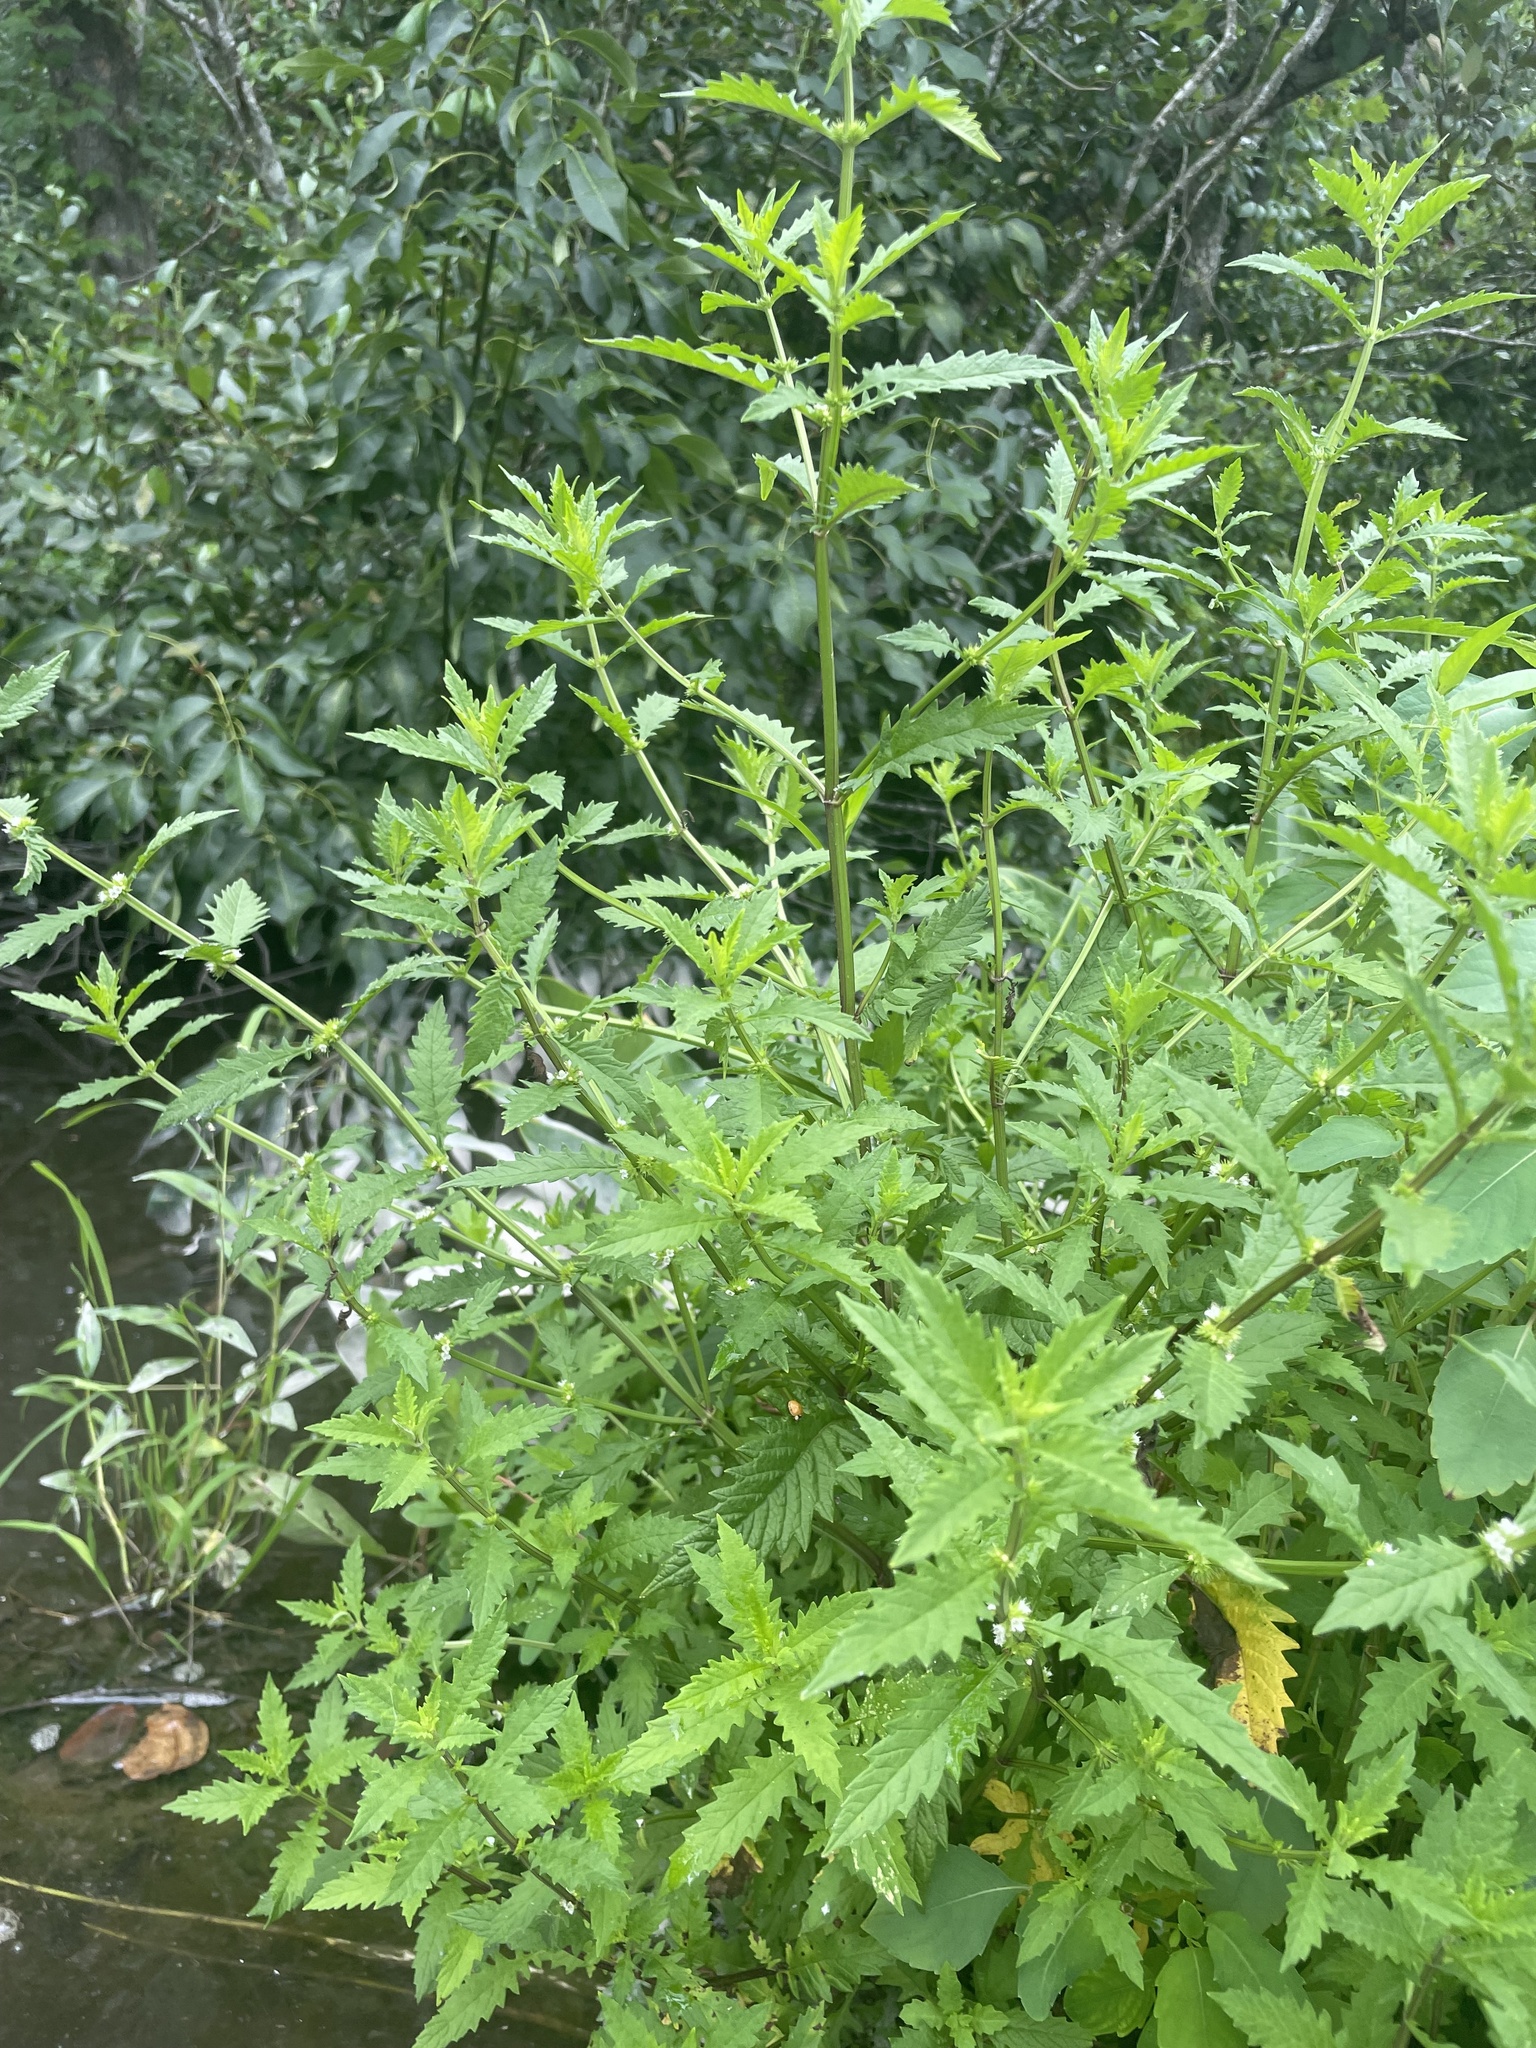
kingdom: Plantae
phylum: Tracheophyta
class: Magnoliopsida
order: Lamiales
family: Lamiaceae
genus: Lycopus
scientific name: Lycopus europaeus
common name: European bugleweed
